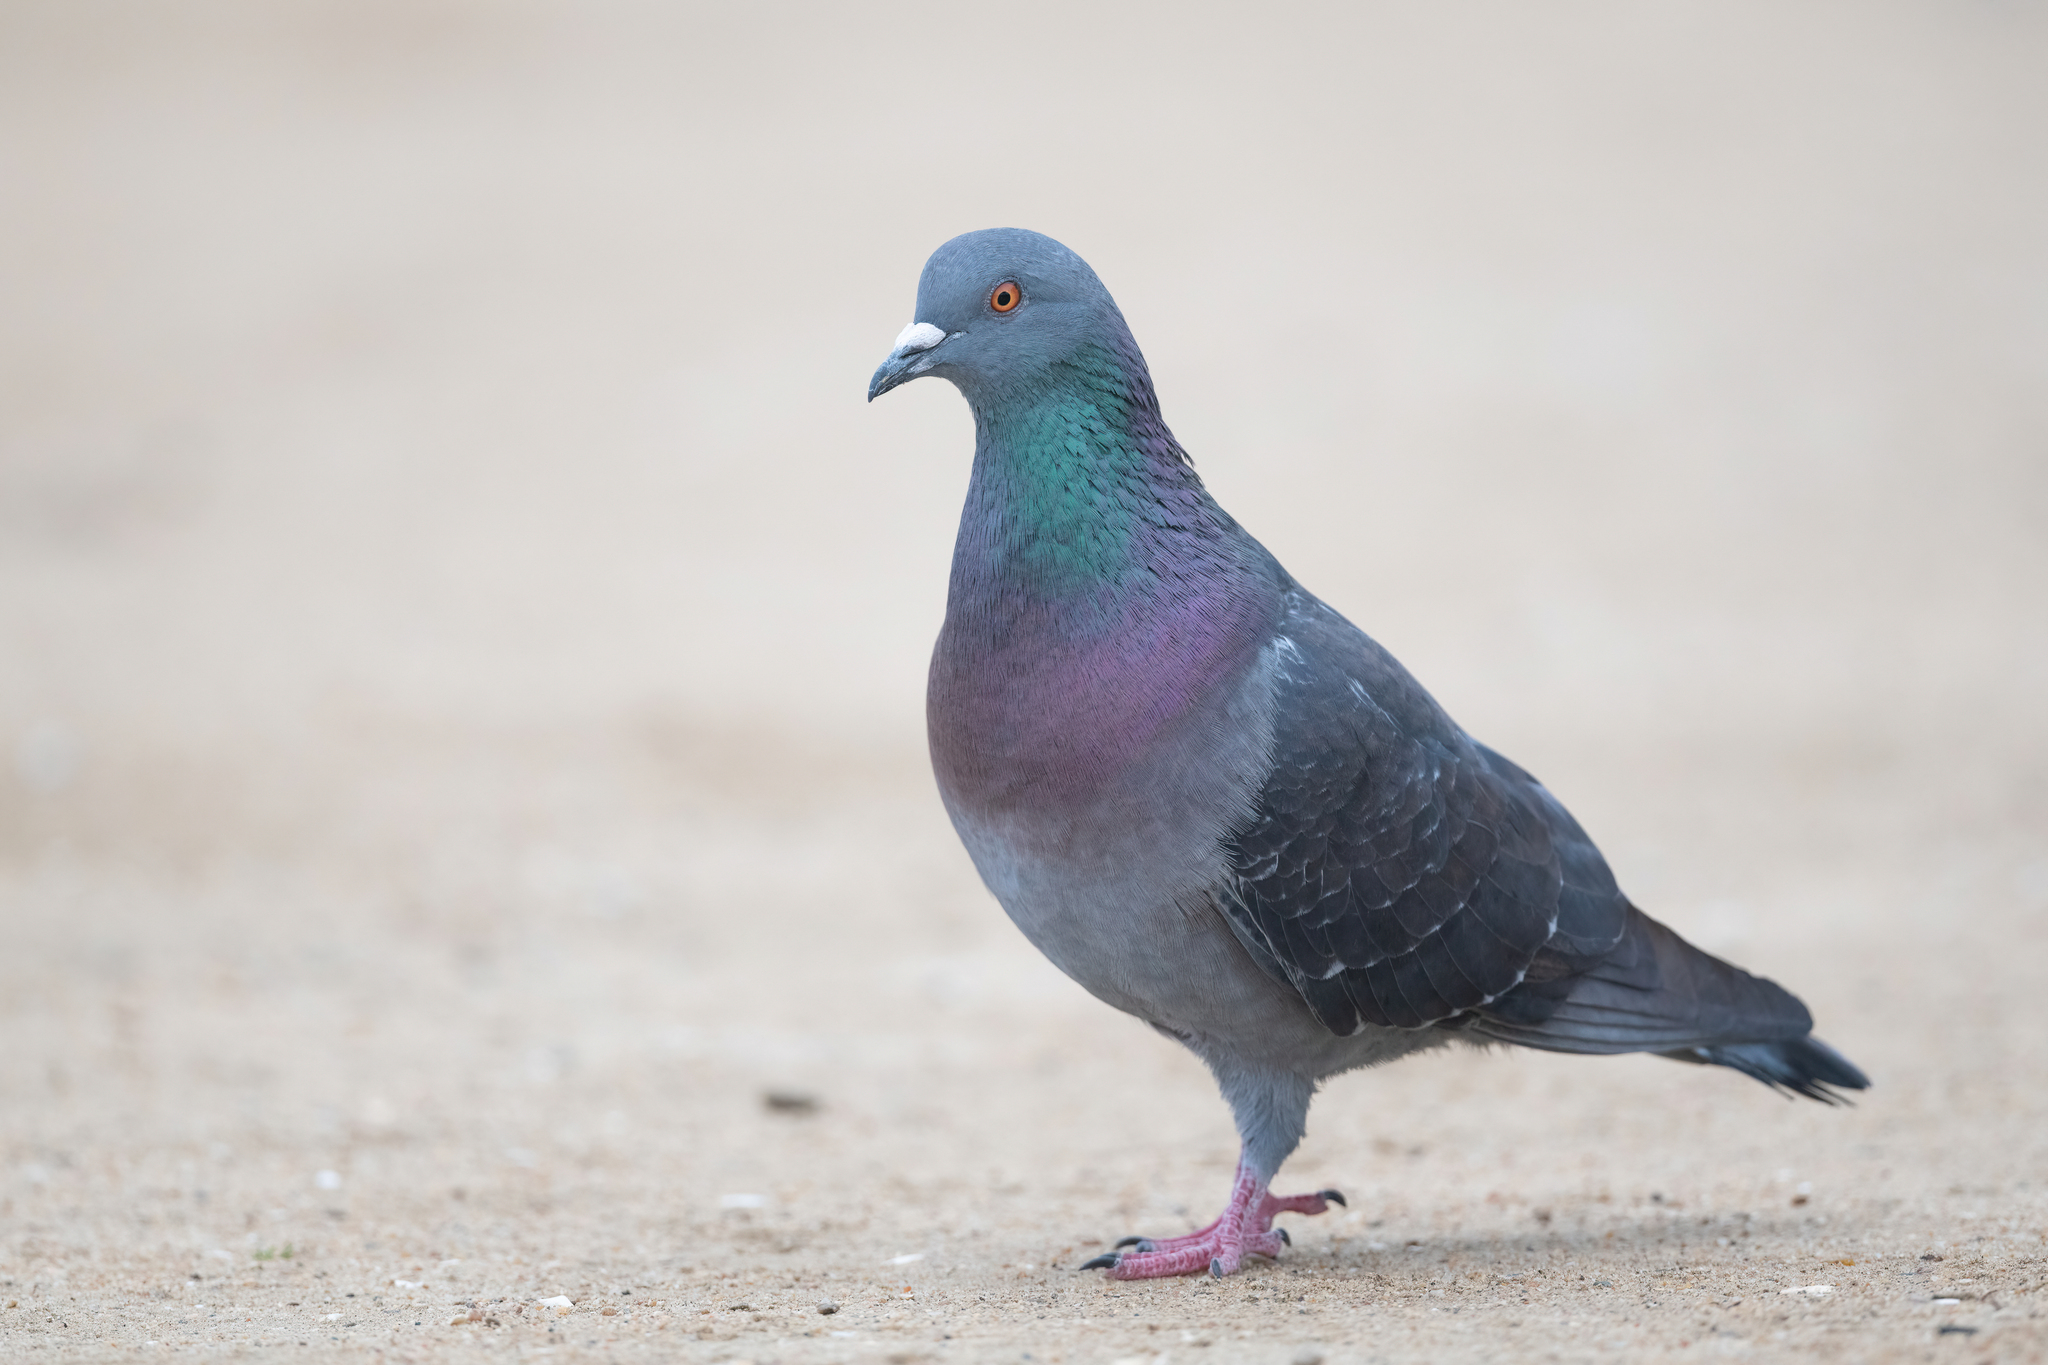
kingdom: Animalia
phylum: Chordata
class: Aves
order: Columbiformes
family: Columbidae
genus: Columba
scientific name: Columba livia
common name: Rock pigeon
